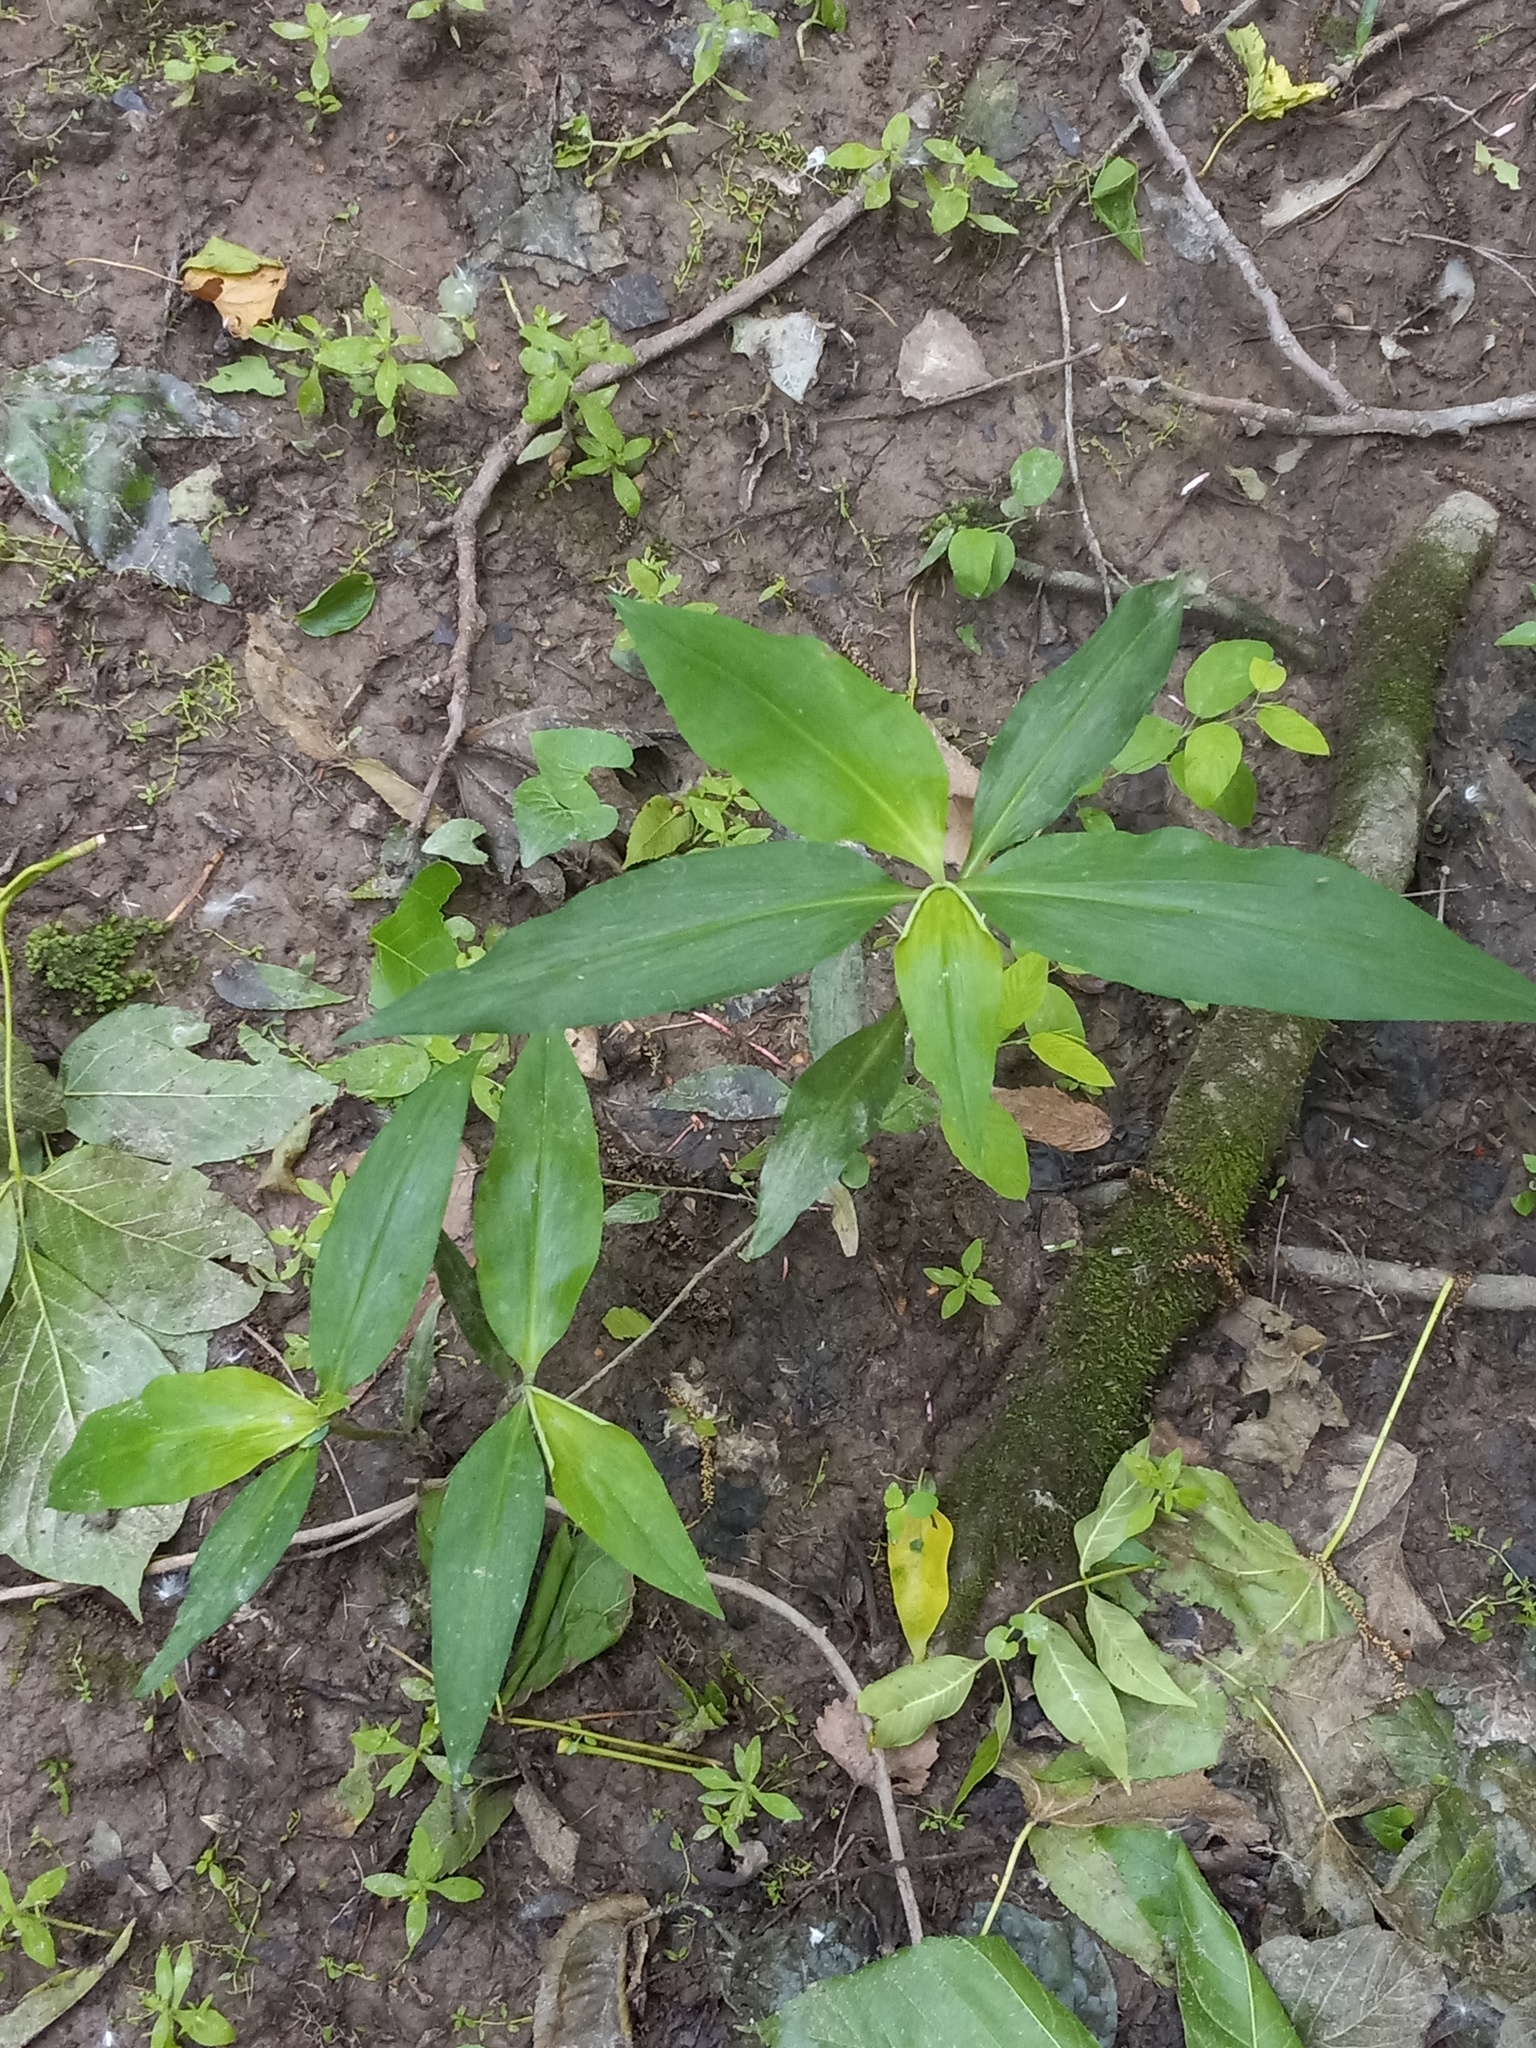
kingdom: Plantae
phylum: Tracheophyta
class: Liliopsida
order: Commelinales
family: Commelinaceae
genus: Commelina
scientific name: Commelina virginica
